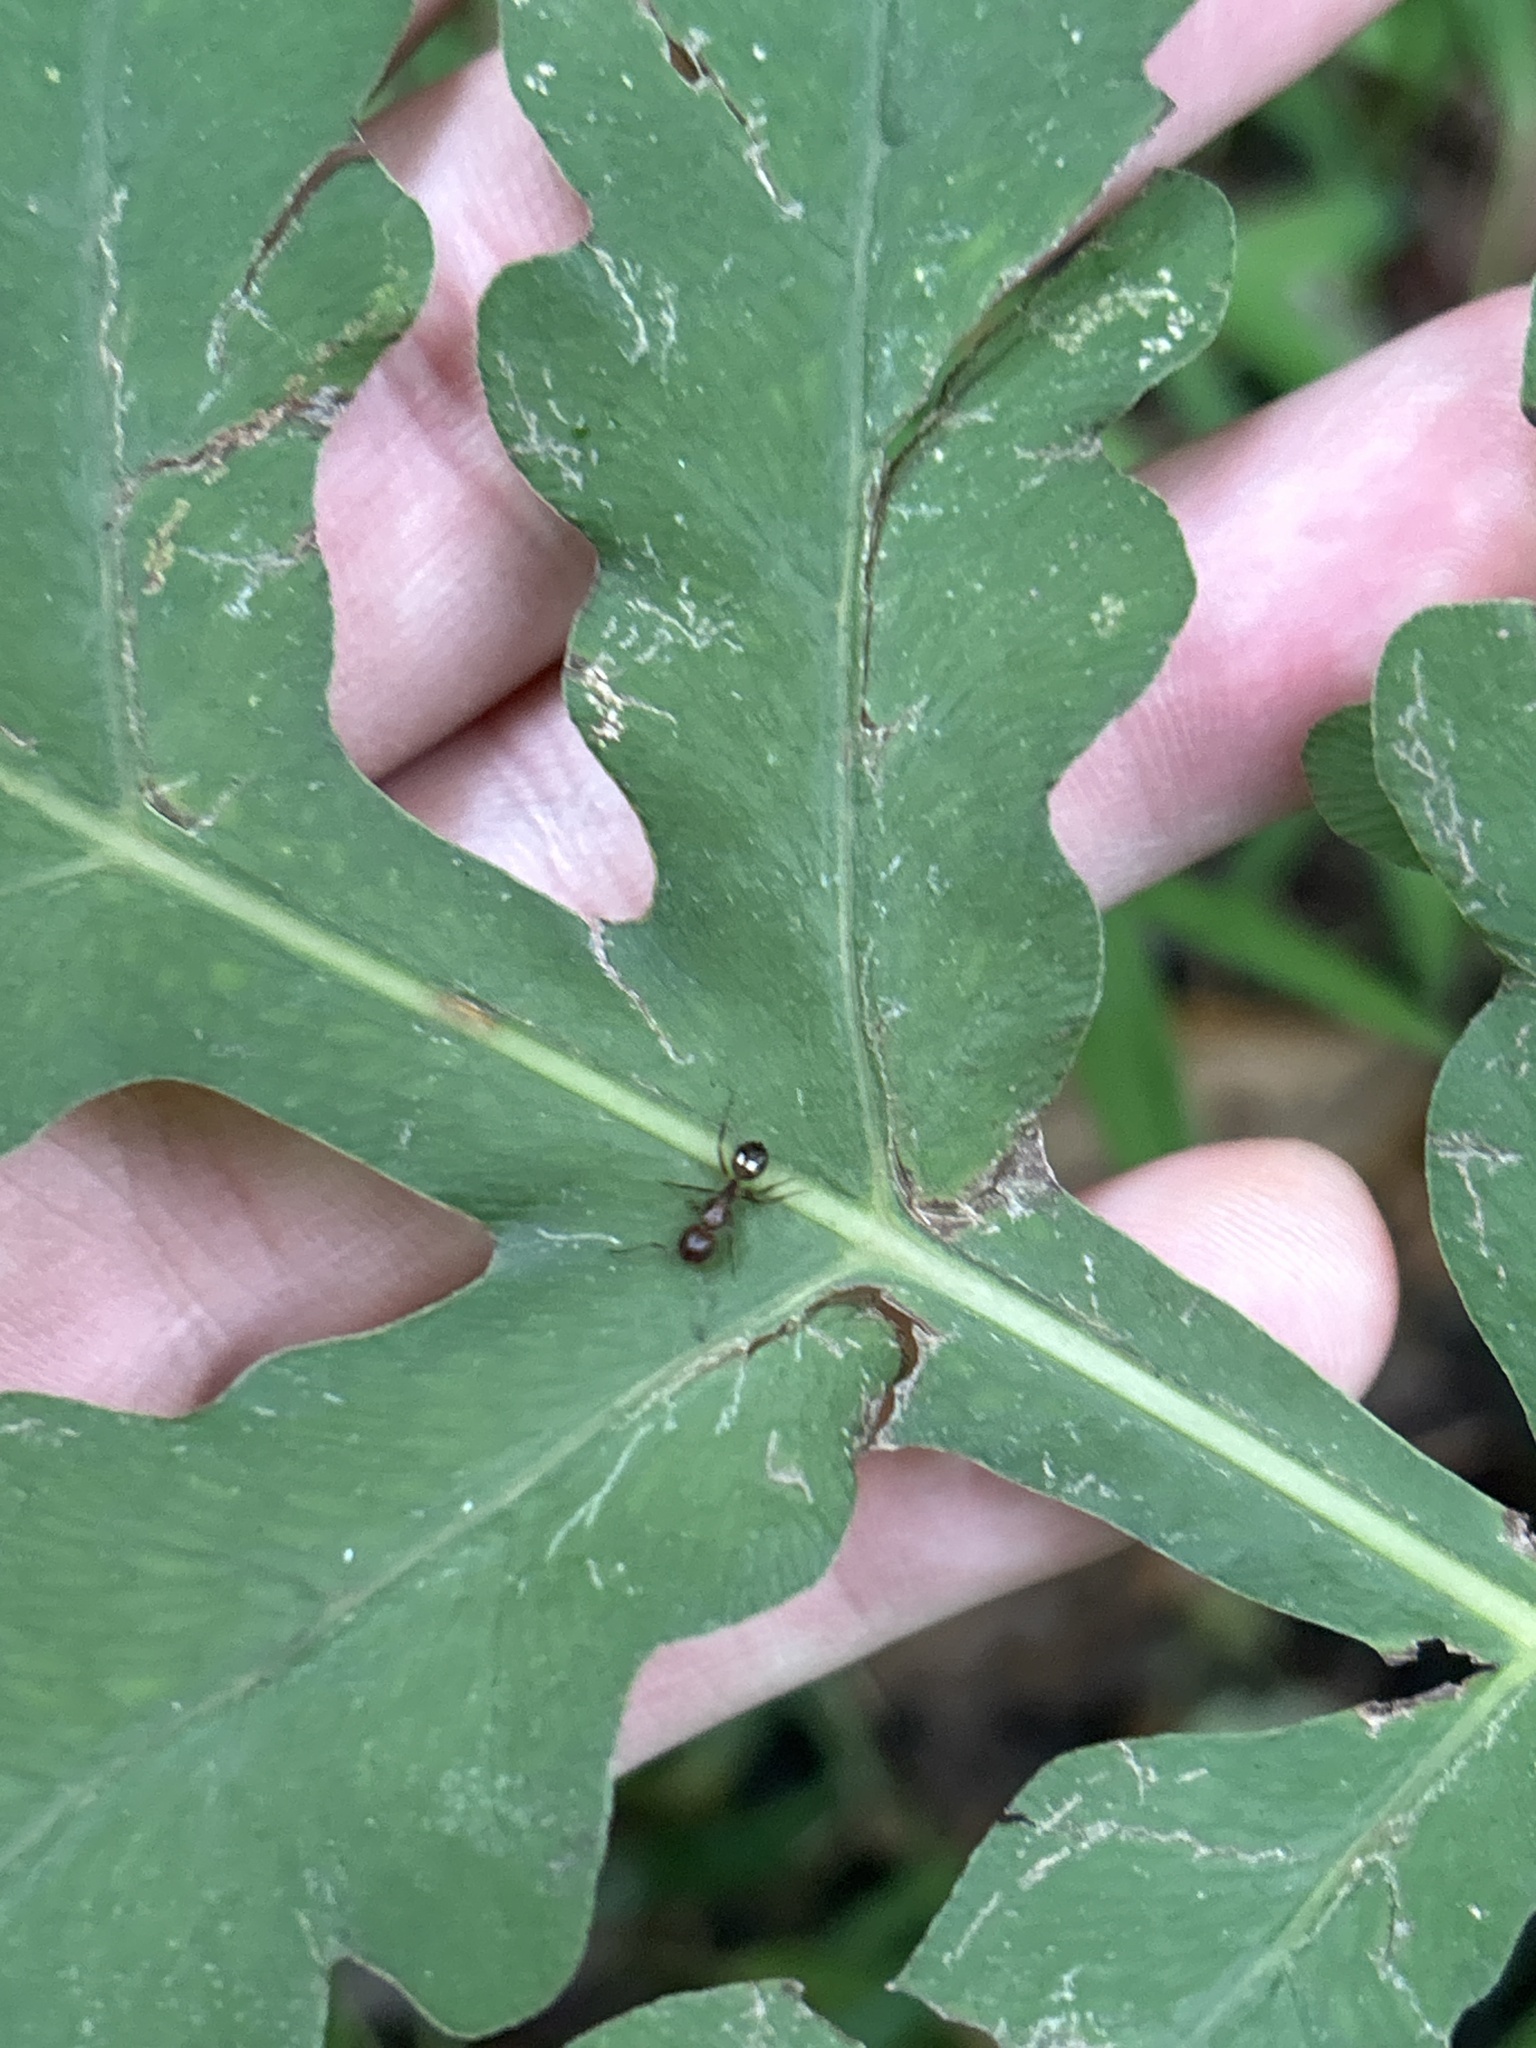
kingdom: Animalia
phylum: Arthropoda
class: Insecta
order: Hymenoptera
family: Formicidae
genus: Camponotus
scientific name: Camponotus subbarbatus
